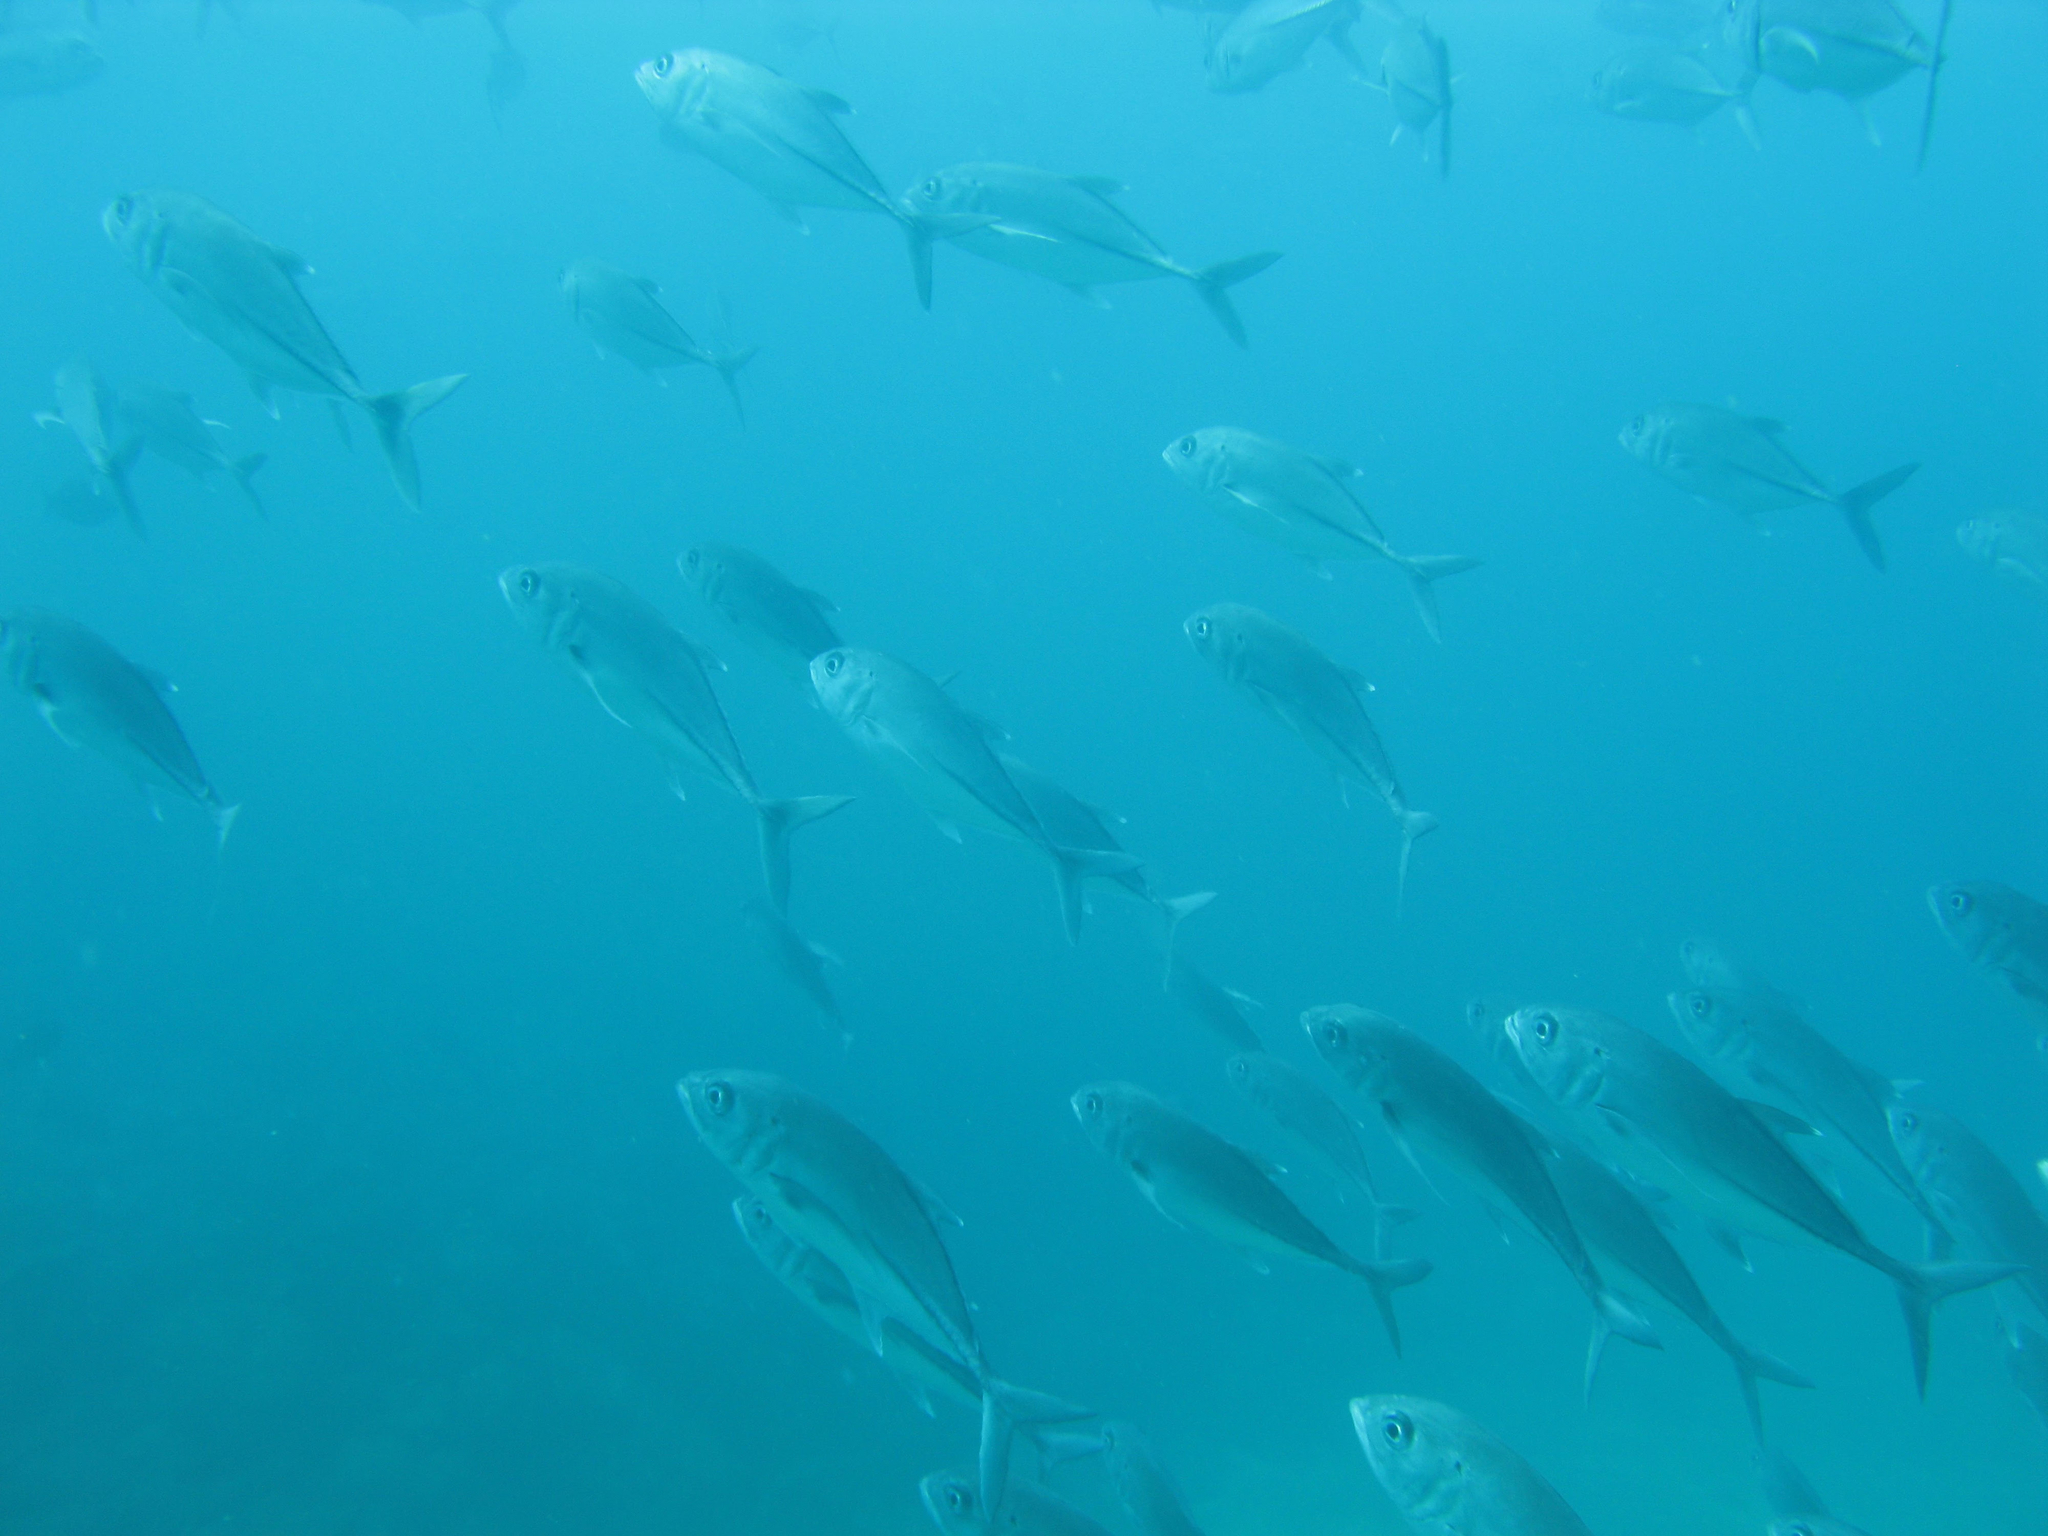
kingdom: Animalia
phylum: Chordata
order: Perciformes
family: Carangidae
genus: Caranx
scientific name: Caranx sexfasciatus
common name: Bigeye trevally
